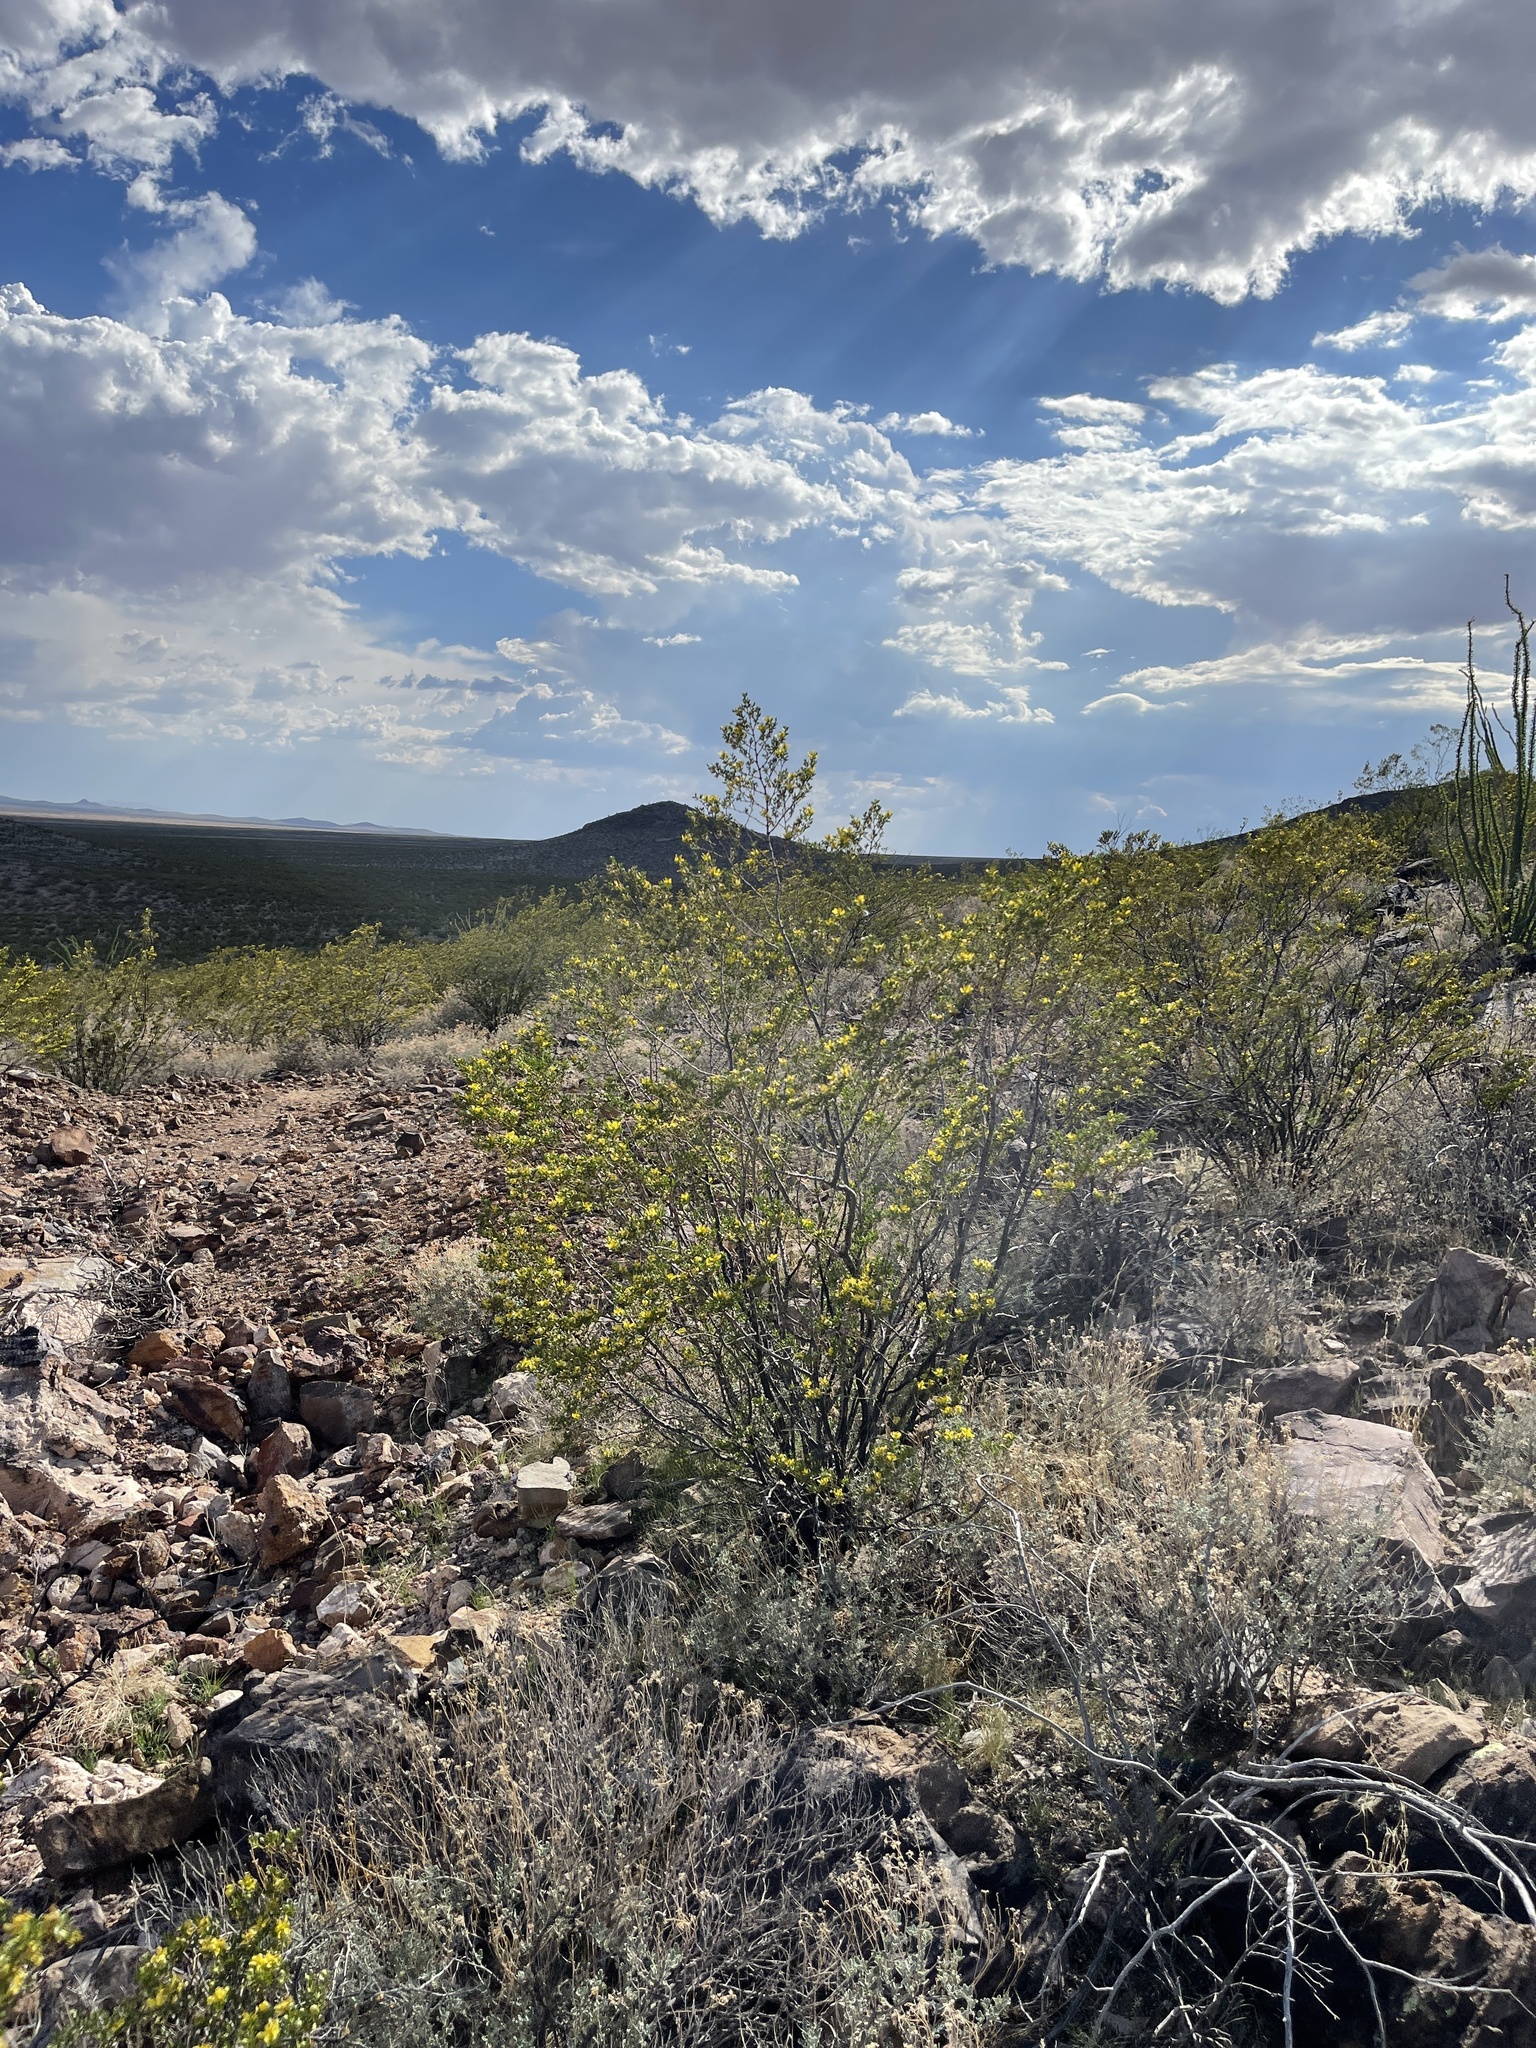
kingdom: Plantae
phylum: Tracheophyta
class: Magnoliopsida
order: Zygophyllales
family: Zygophyllaceae
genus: Larrea
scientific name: Larrea tridentata
